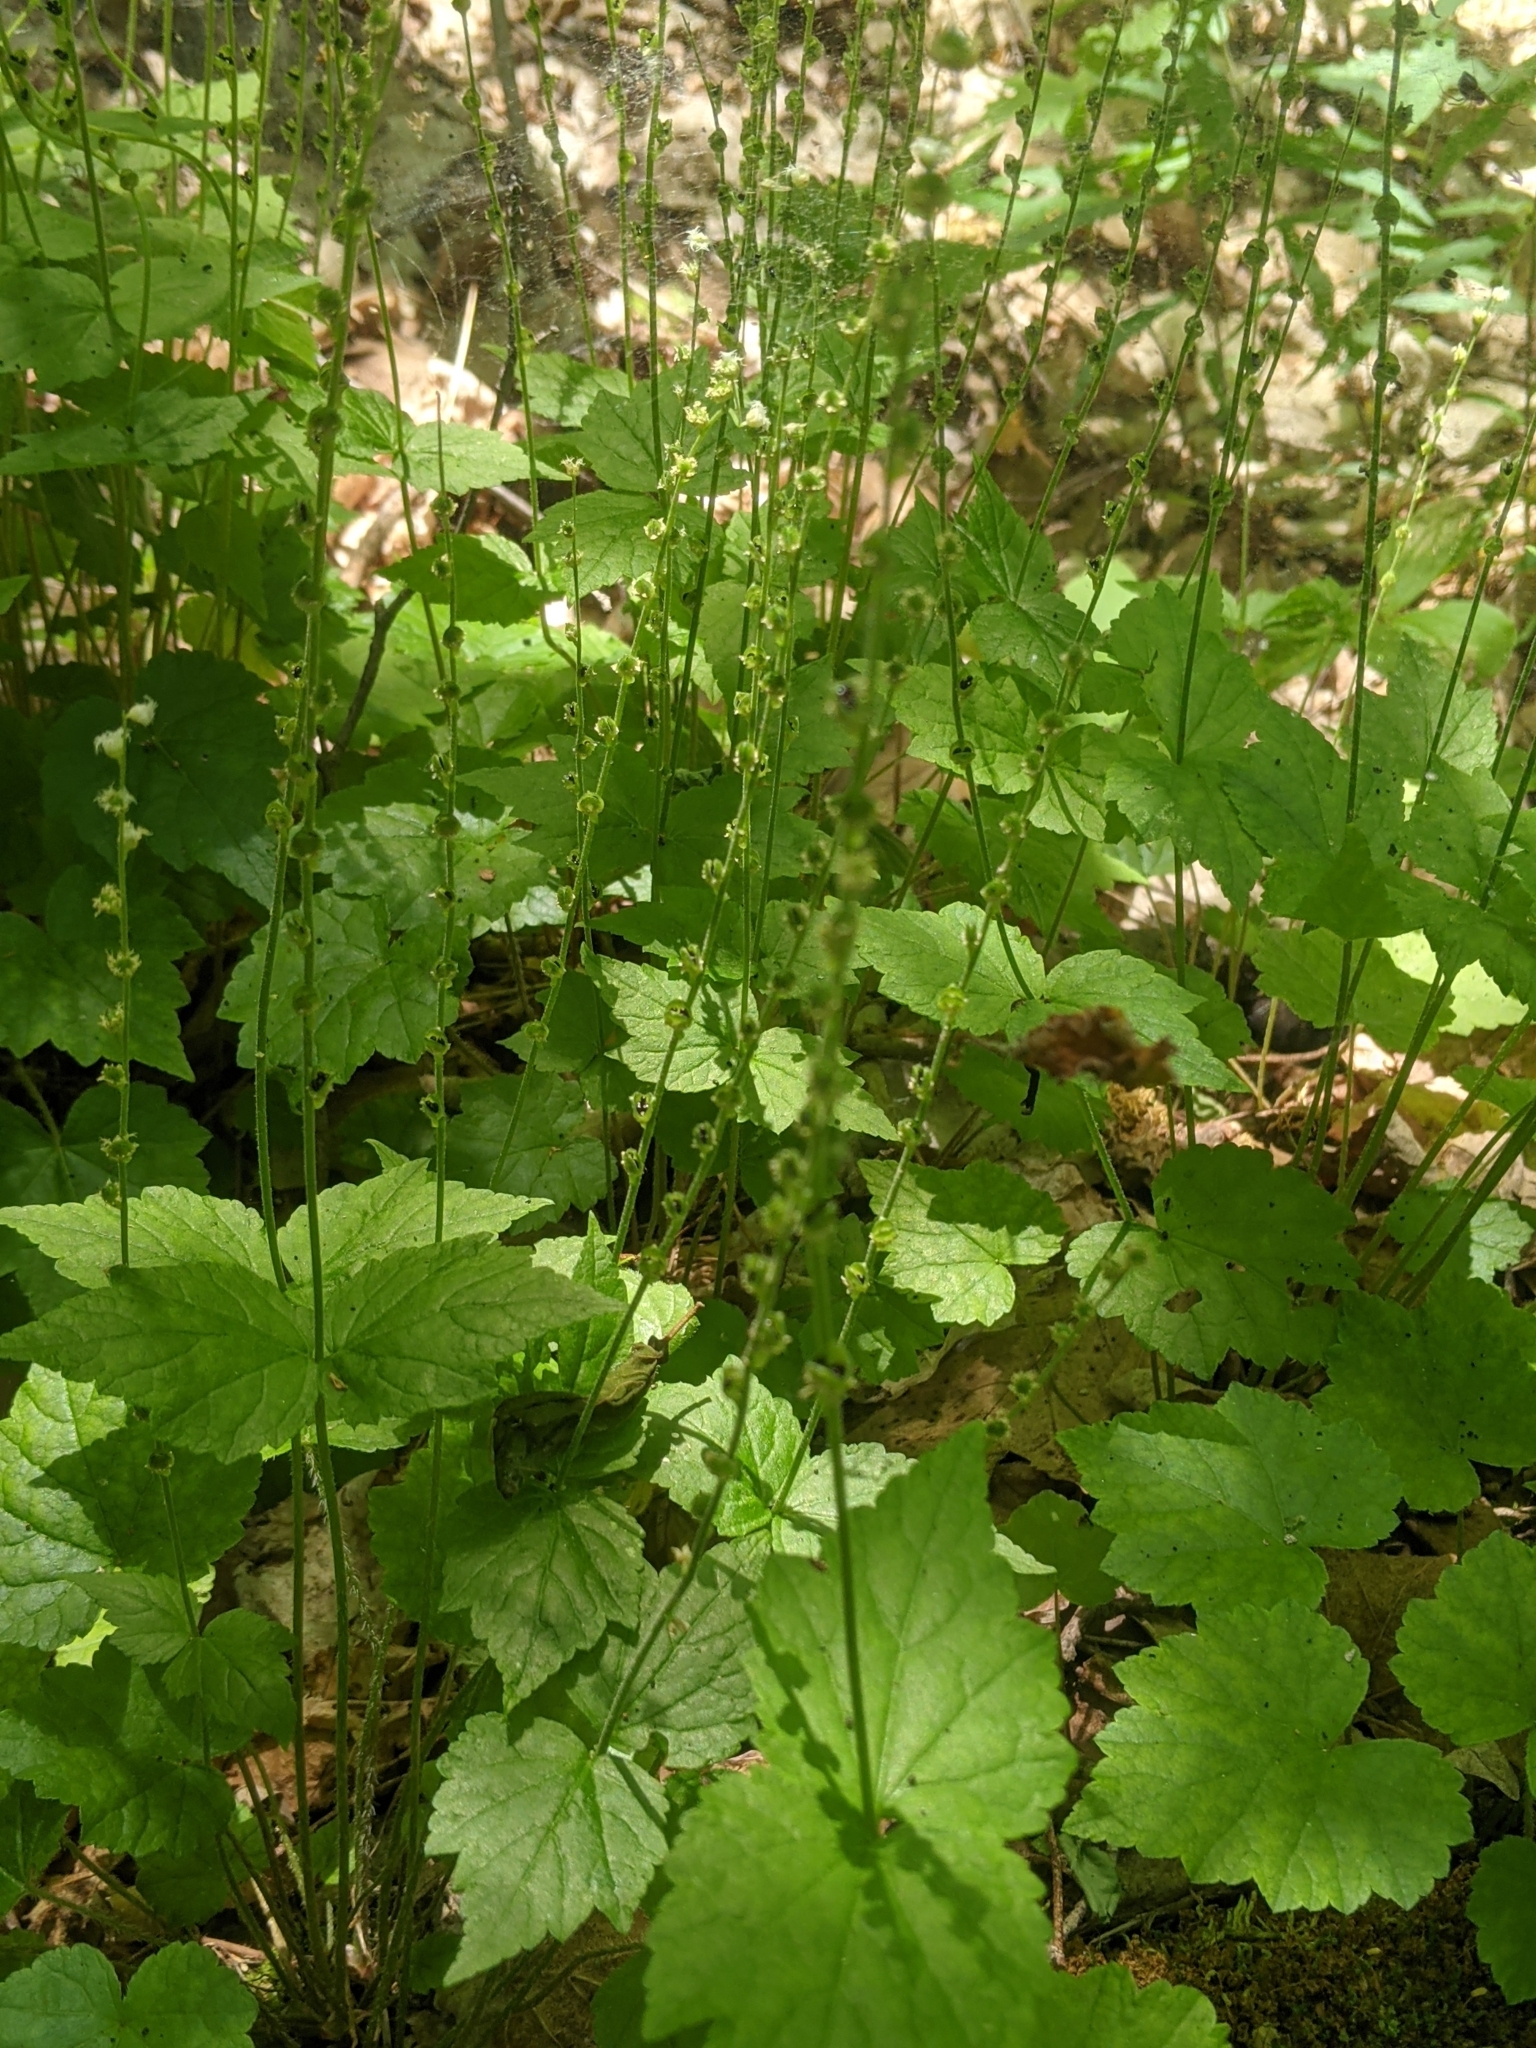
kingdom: Plantae
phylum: Tracheophyta
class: Magnoliopsida
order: Saxifragales
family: Saxifragaceae
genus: Mitella
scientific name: Mitella diphylla
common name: Coolwort
